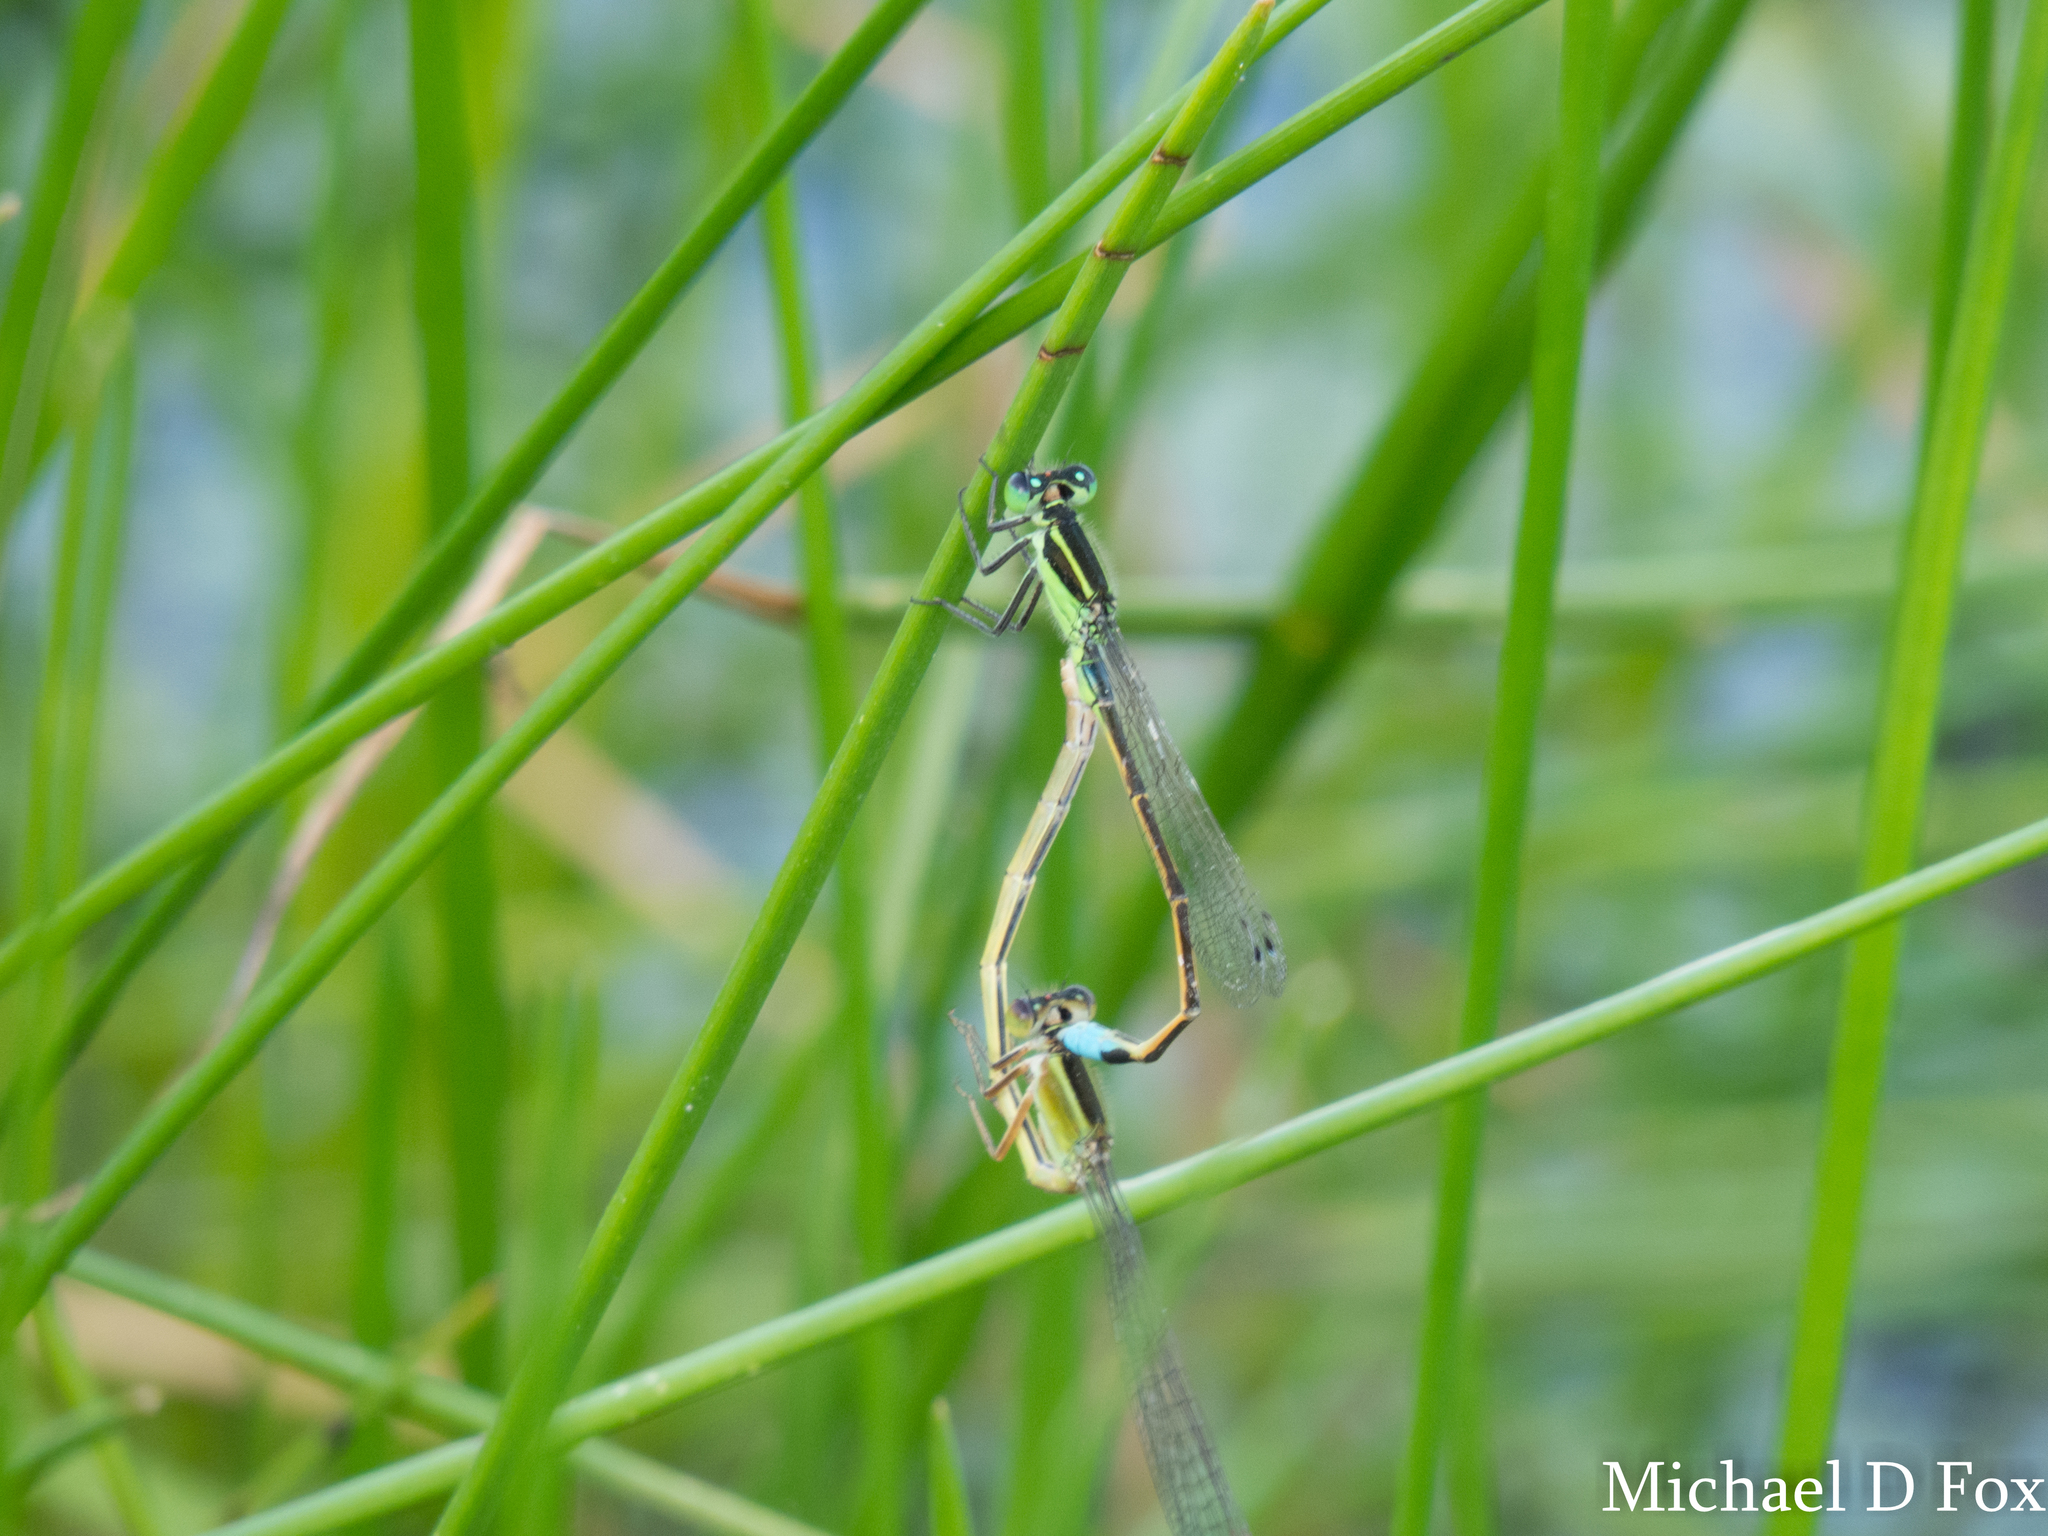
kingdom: Animalia
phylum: Arthropoda
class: Insecta
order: Odonata
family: Coenagrionidae
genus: Ischnura
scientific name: Ischnura ramburii
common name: Rambur's forktail
